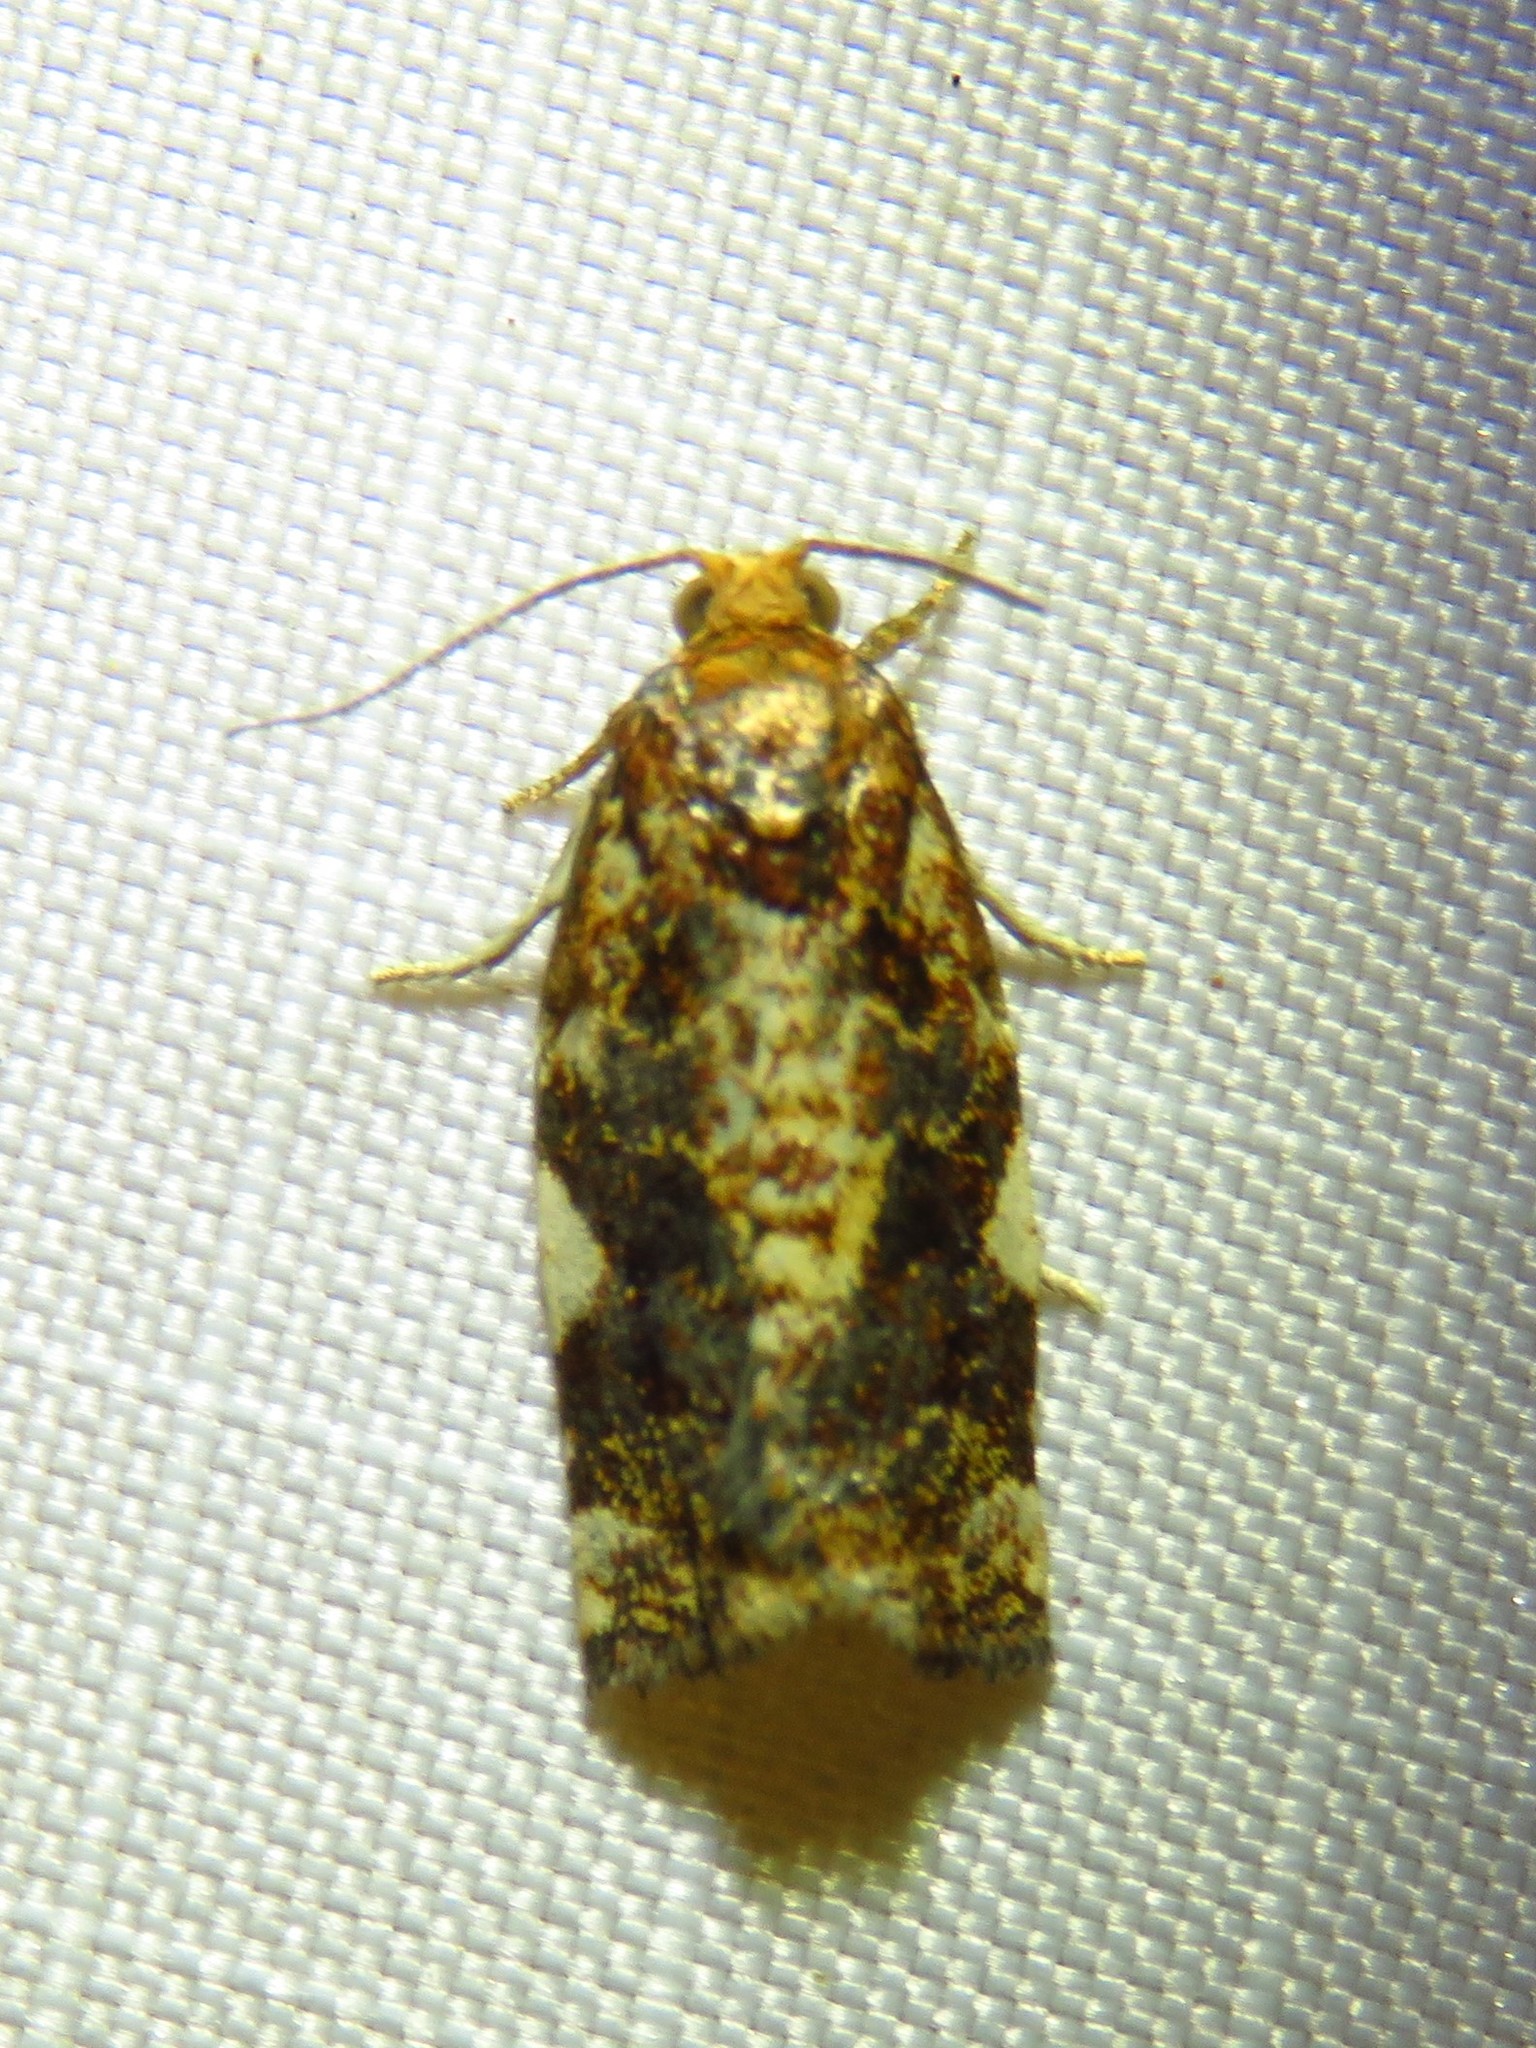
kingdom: Animalia
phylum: Arthropoda
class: Insecta
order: Lepidoptera
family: Tortricidae
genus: Archips
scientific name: Archips argyrospila
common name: Fruit-tree leafroller moth
